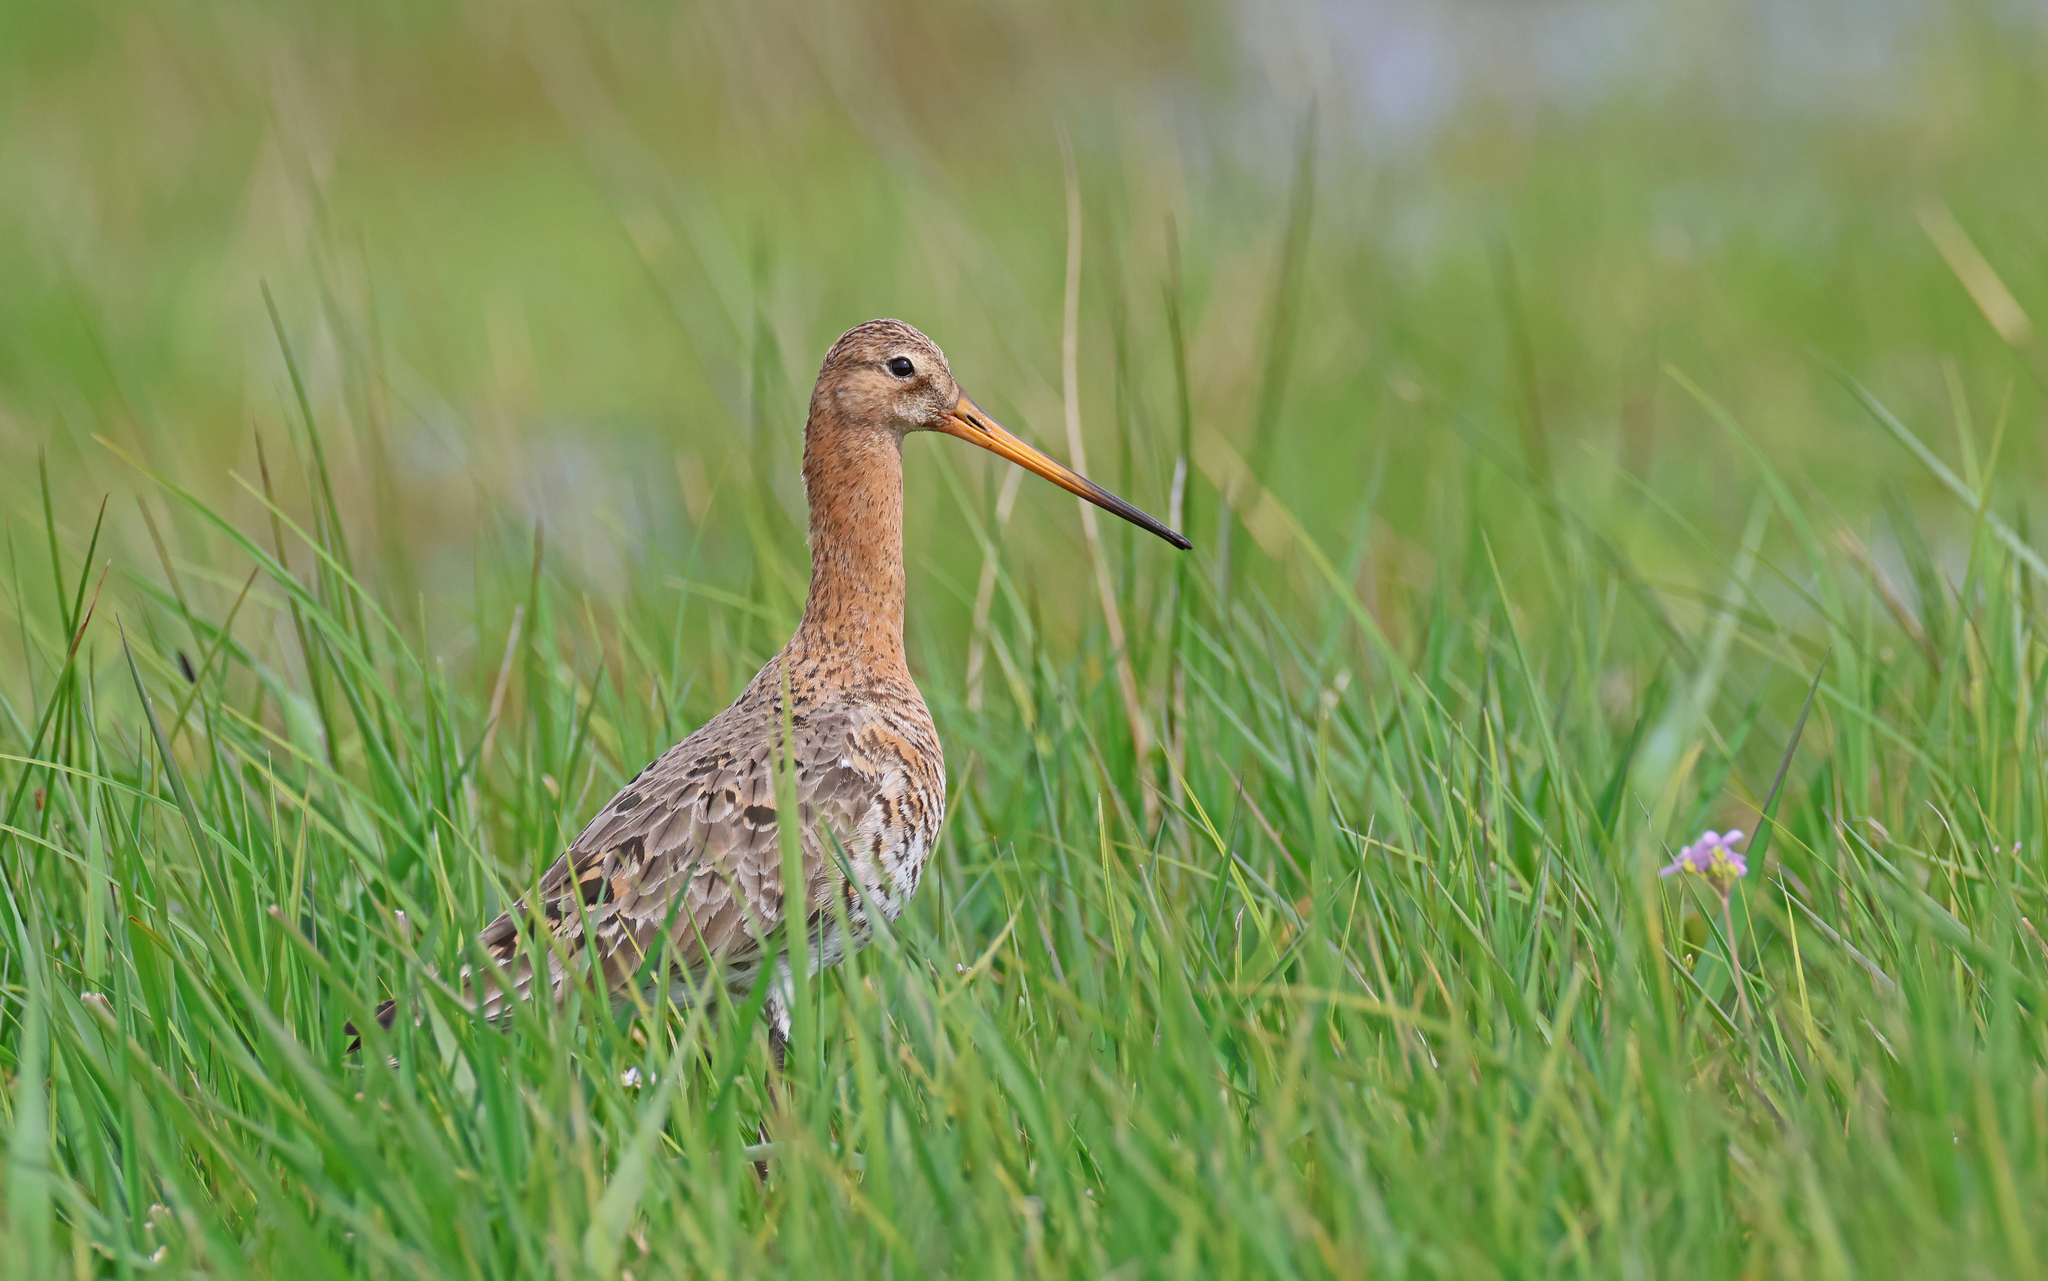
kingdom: Animalia
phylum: Chordata
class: Aves
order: Charadriiformes
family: Scolopacidae
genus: Limosa
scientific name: Limosa limosa
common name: Black-tailed godwit
